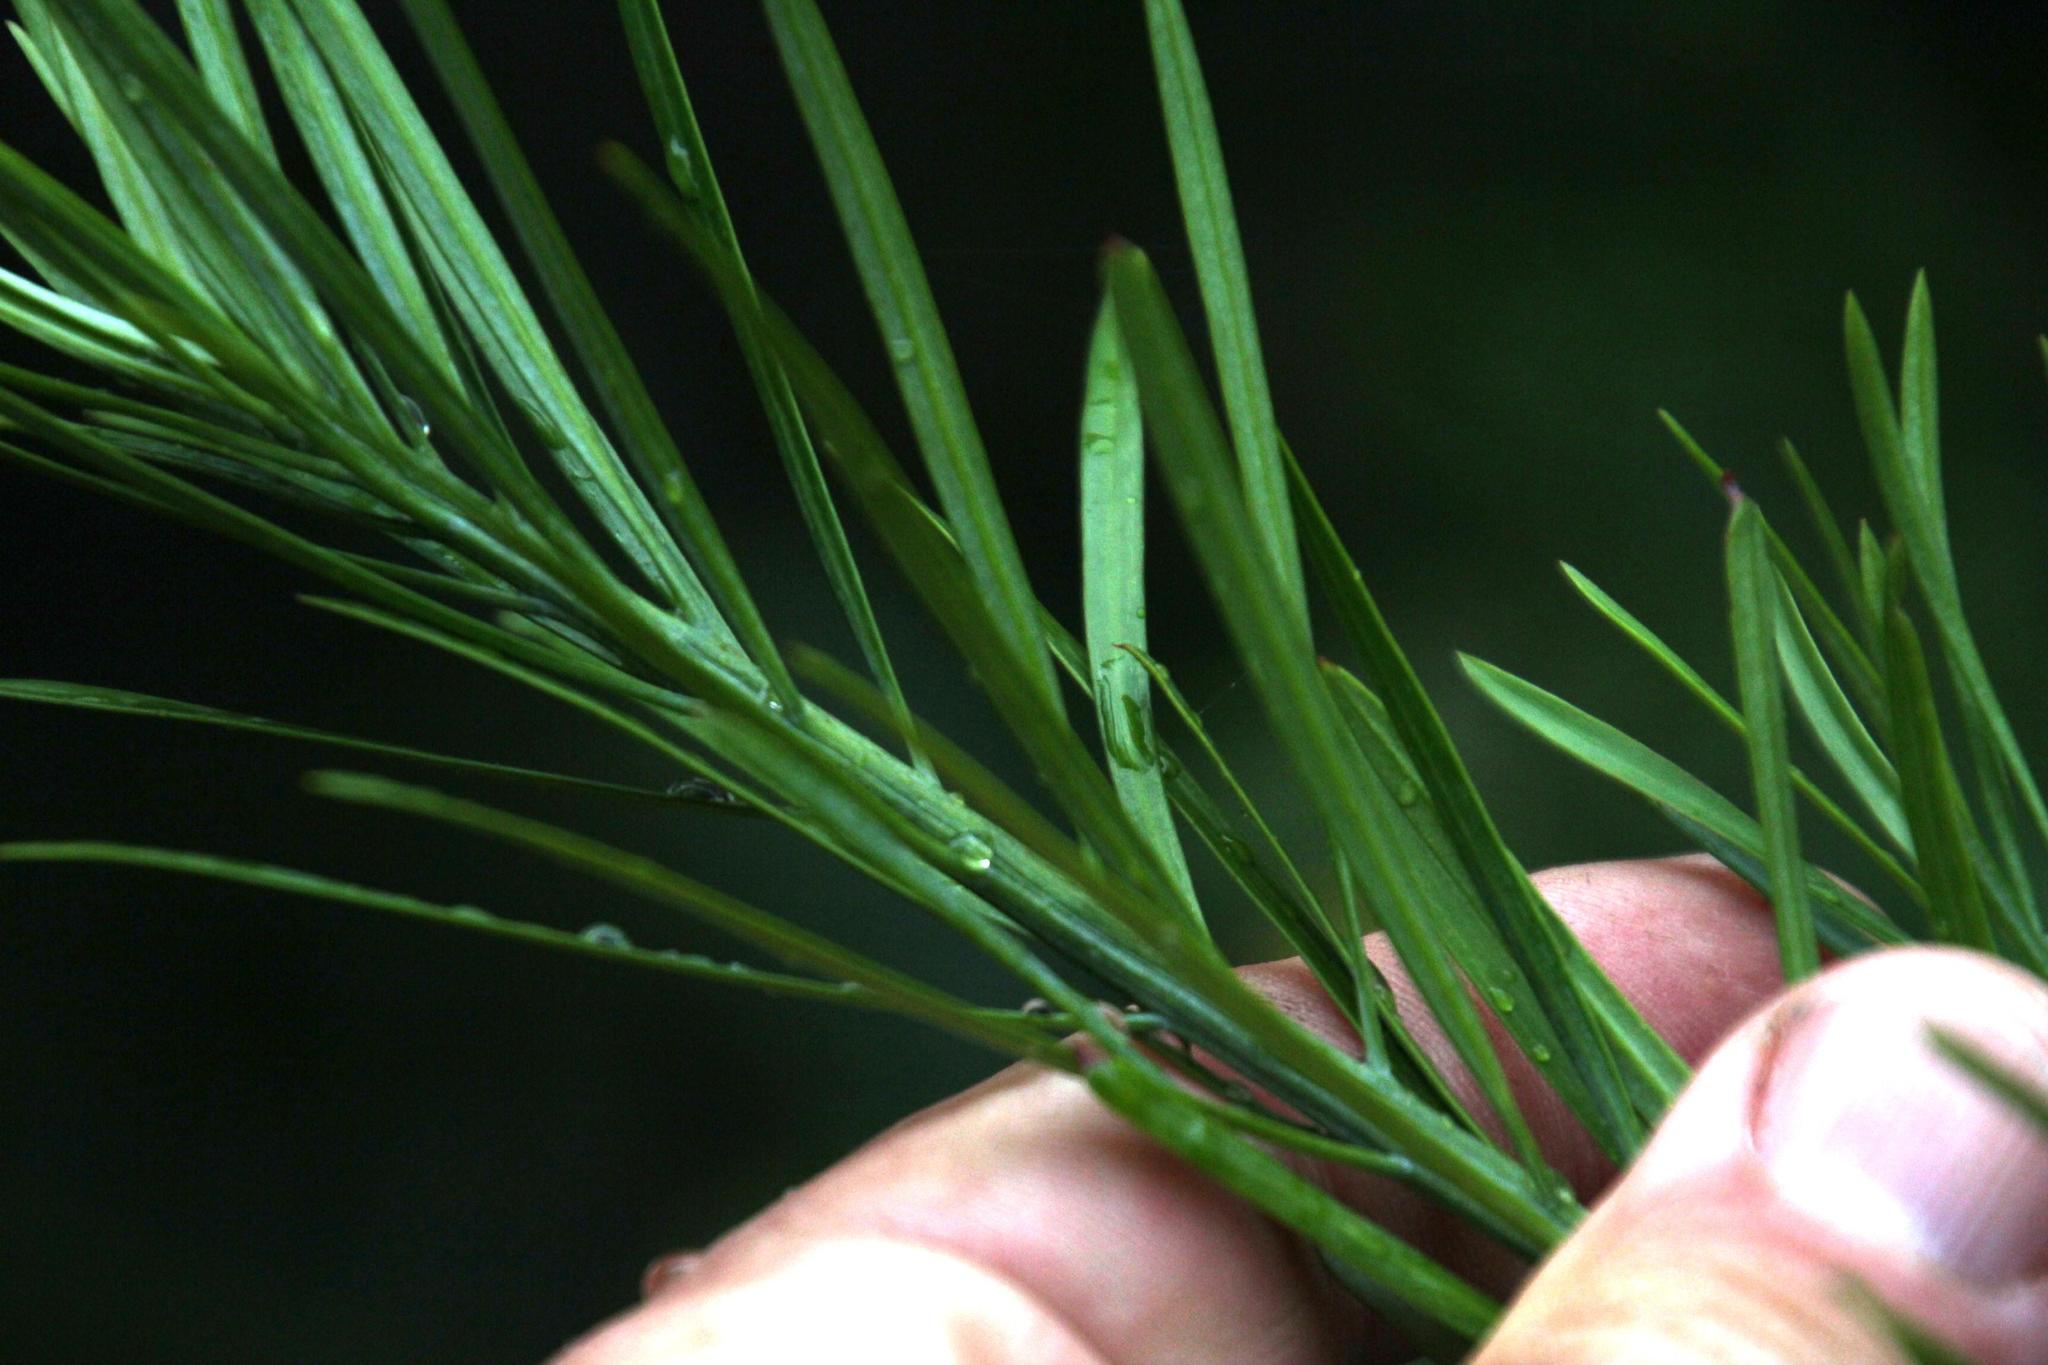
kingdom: Plantae
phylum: Tracheophyta
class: Pinopsida
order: Pinales
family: Podocarpaceae
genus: Podocarpus
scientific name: Podocarpus elongatus
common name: Breede river yellowwood
